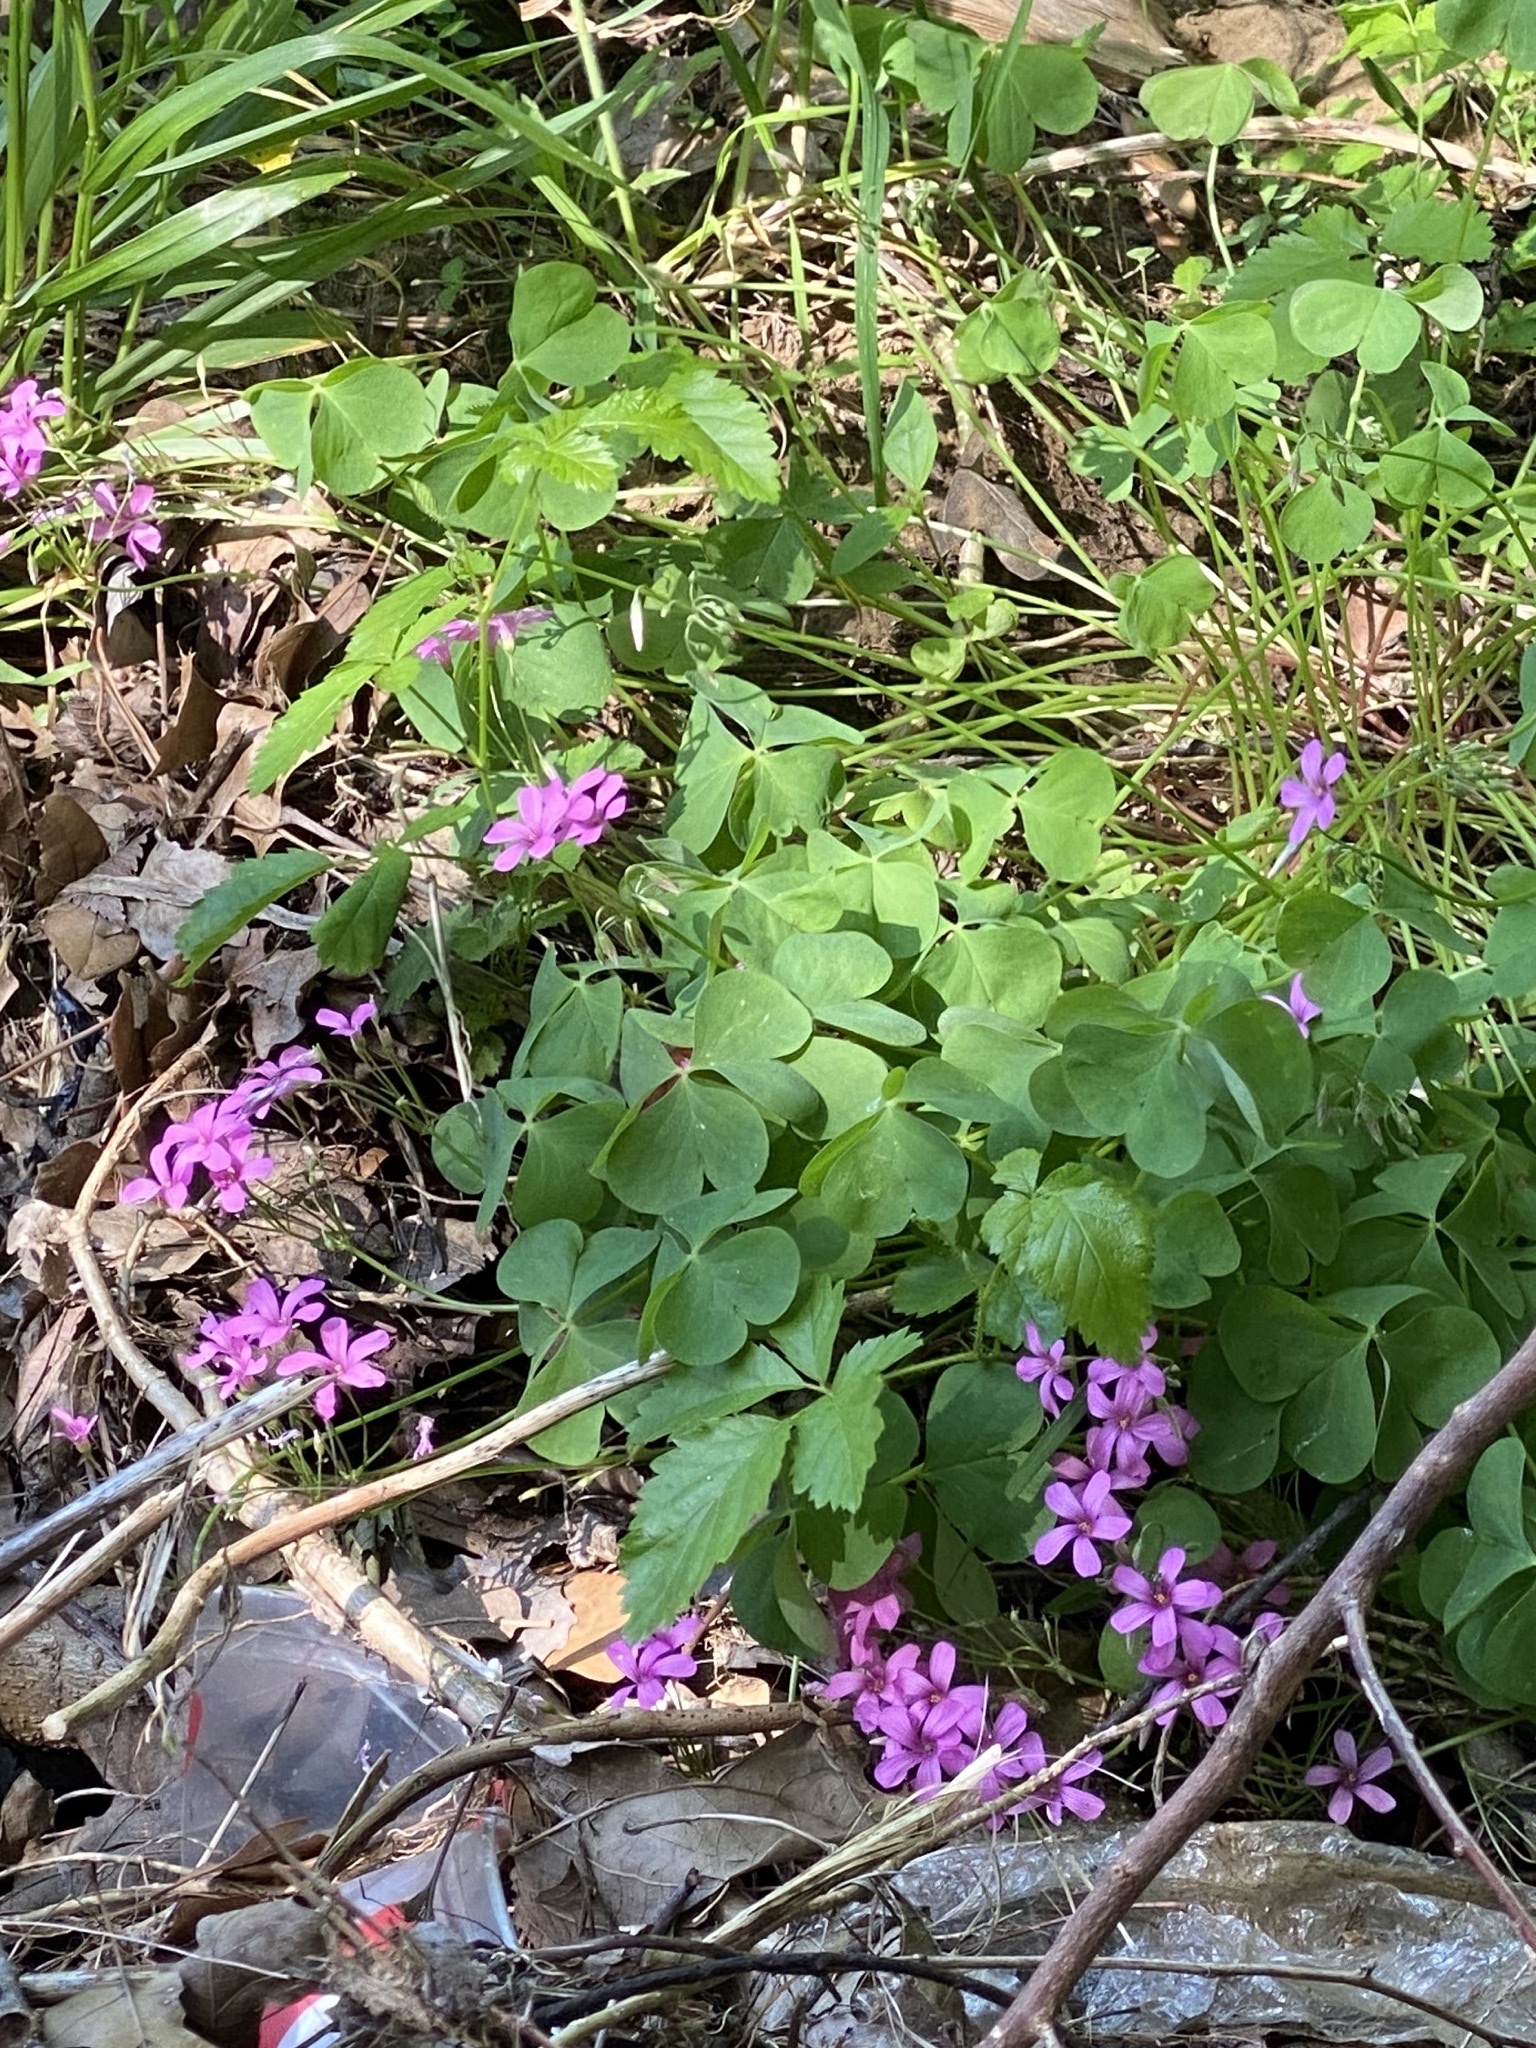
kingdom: Plantae
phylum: Tracheophyta
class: Magnoliopsida
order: Oxalidales
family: Oxalidaceae
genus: Oxalis
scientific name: Oxalis articulata
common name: Pink-sorrel
